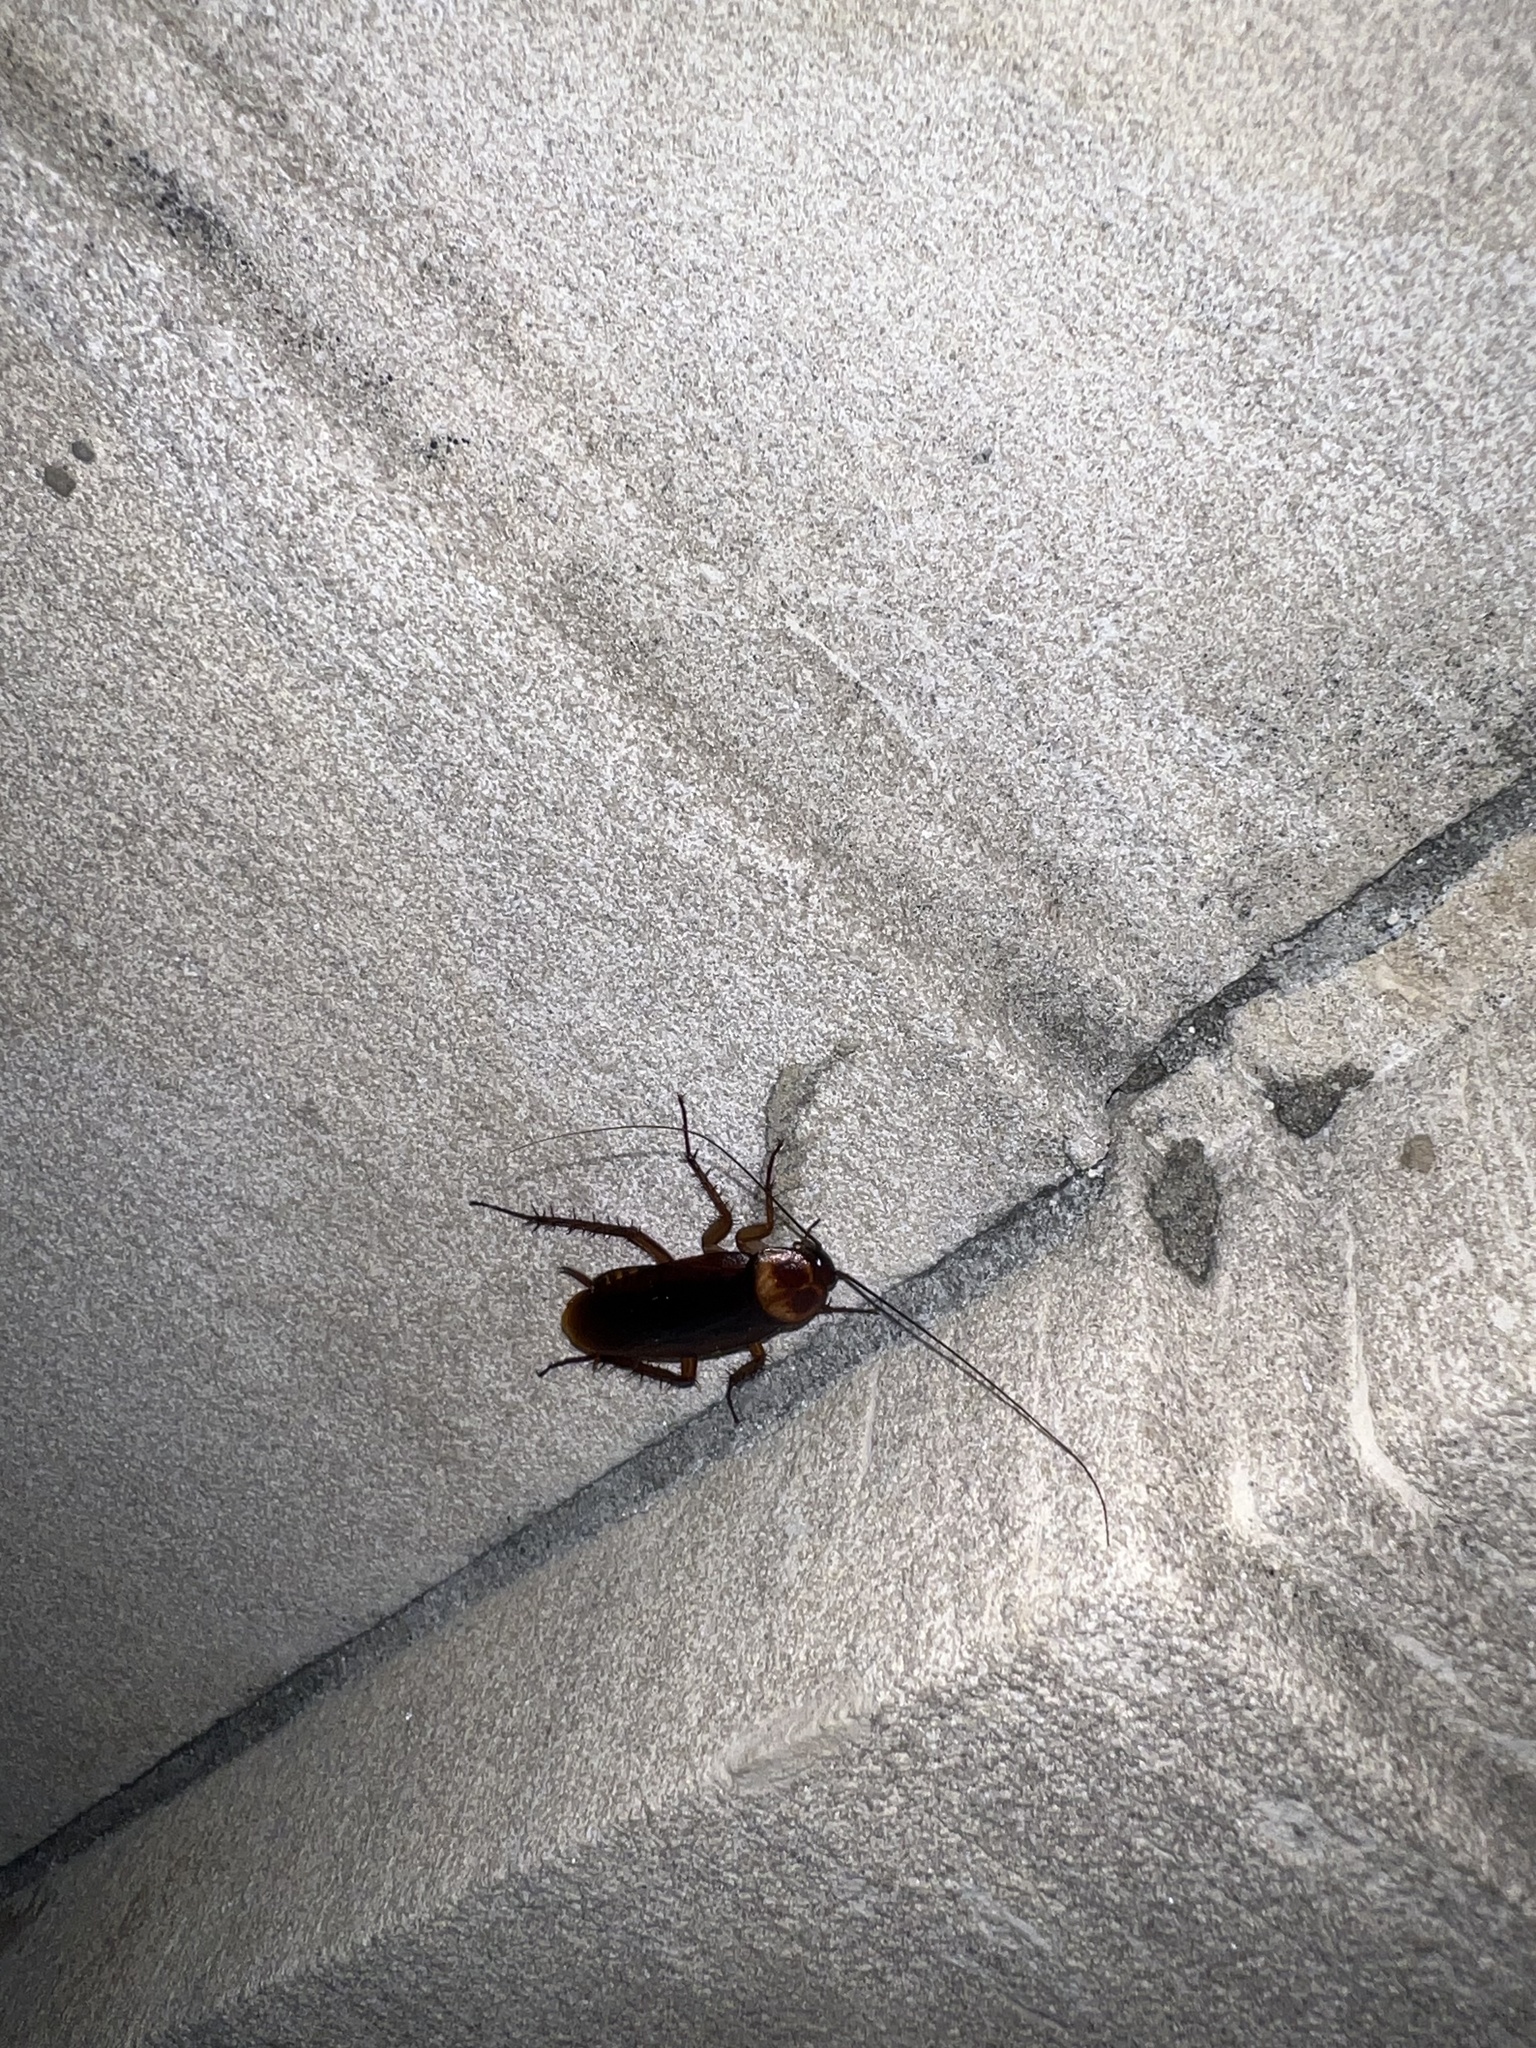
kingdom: Animalia
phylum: Arthropoda
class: Insecta
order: Blattodea
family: Blattidae
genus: Periplaneta
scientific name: Periplaneta americana
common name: American cockroach
